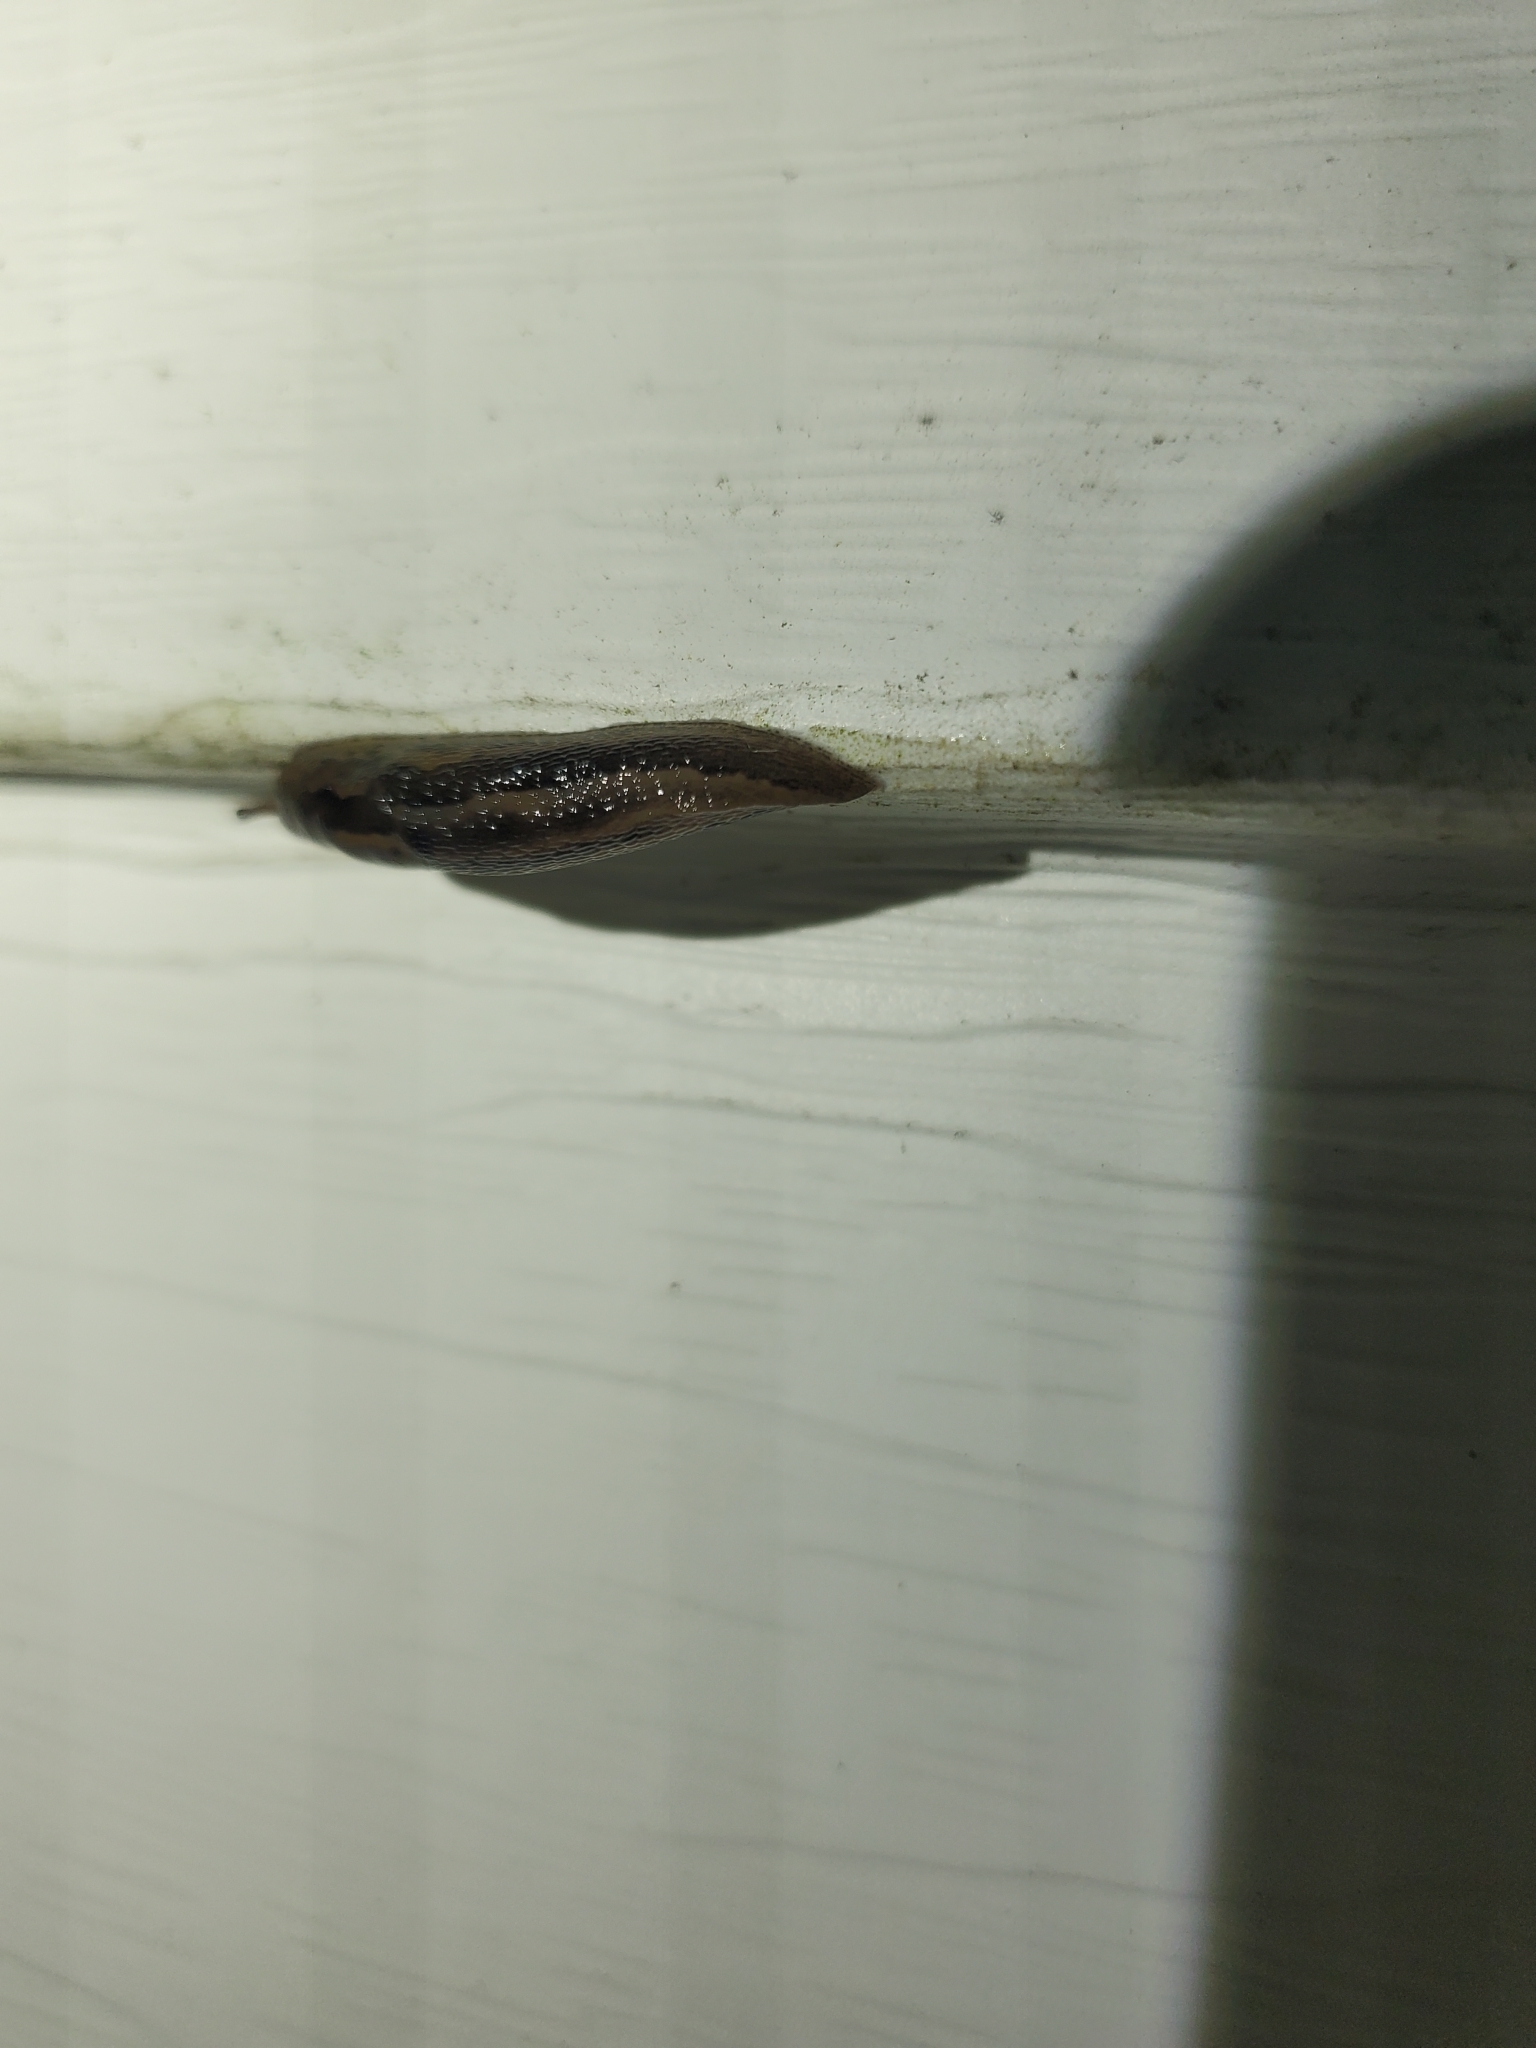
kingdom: Animalia
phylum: Mollusca
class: Gastropoda
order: Stylommatophora
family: Limacidae
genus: Limax
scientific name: Limax maximus
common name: Great grey slug
